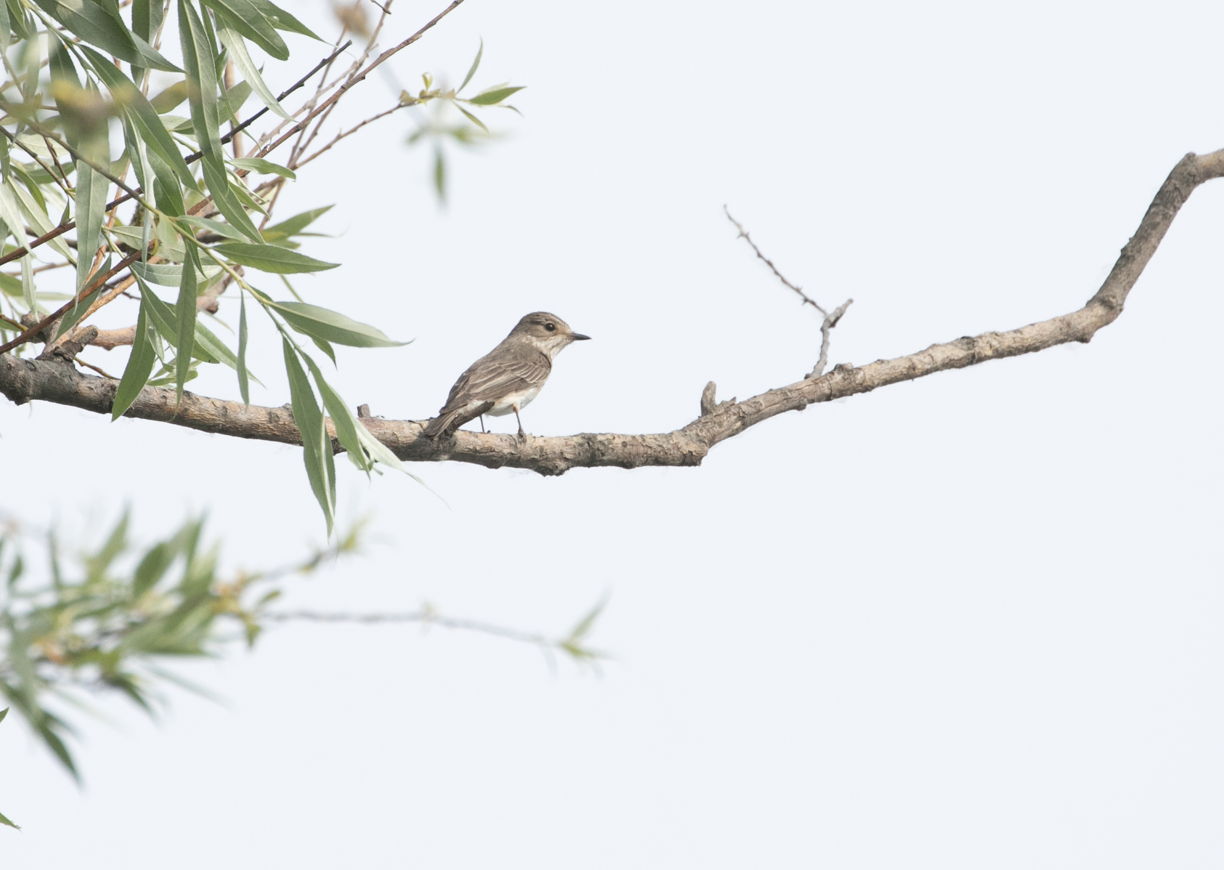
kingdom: Animalia
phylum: Chordata
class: Aves
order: Passeriformes
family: Muscicapidae
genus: Muscicapa
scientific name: Muscicapa striata
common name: Spotted flycatcher
